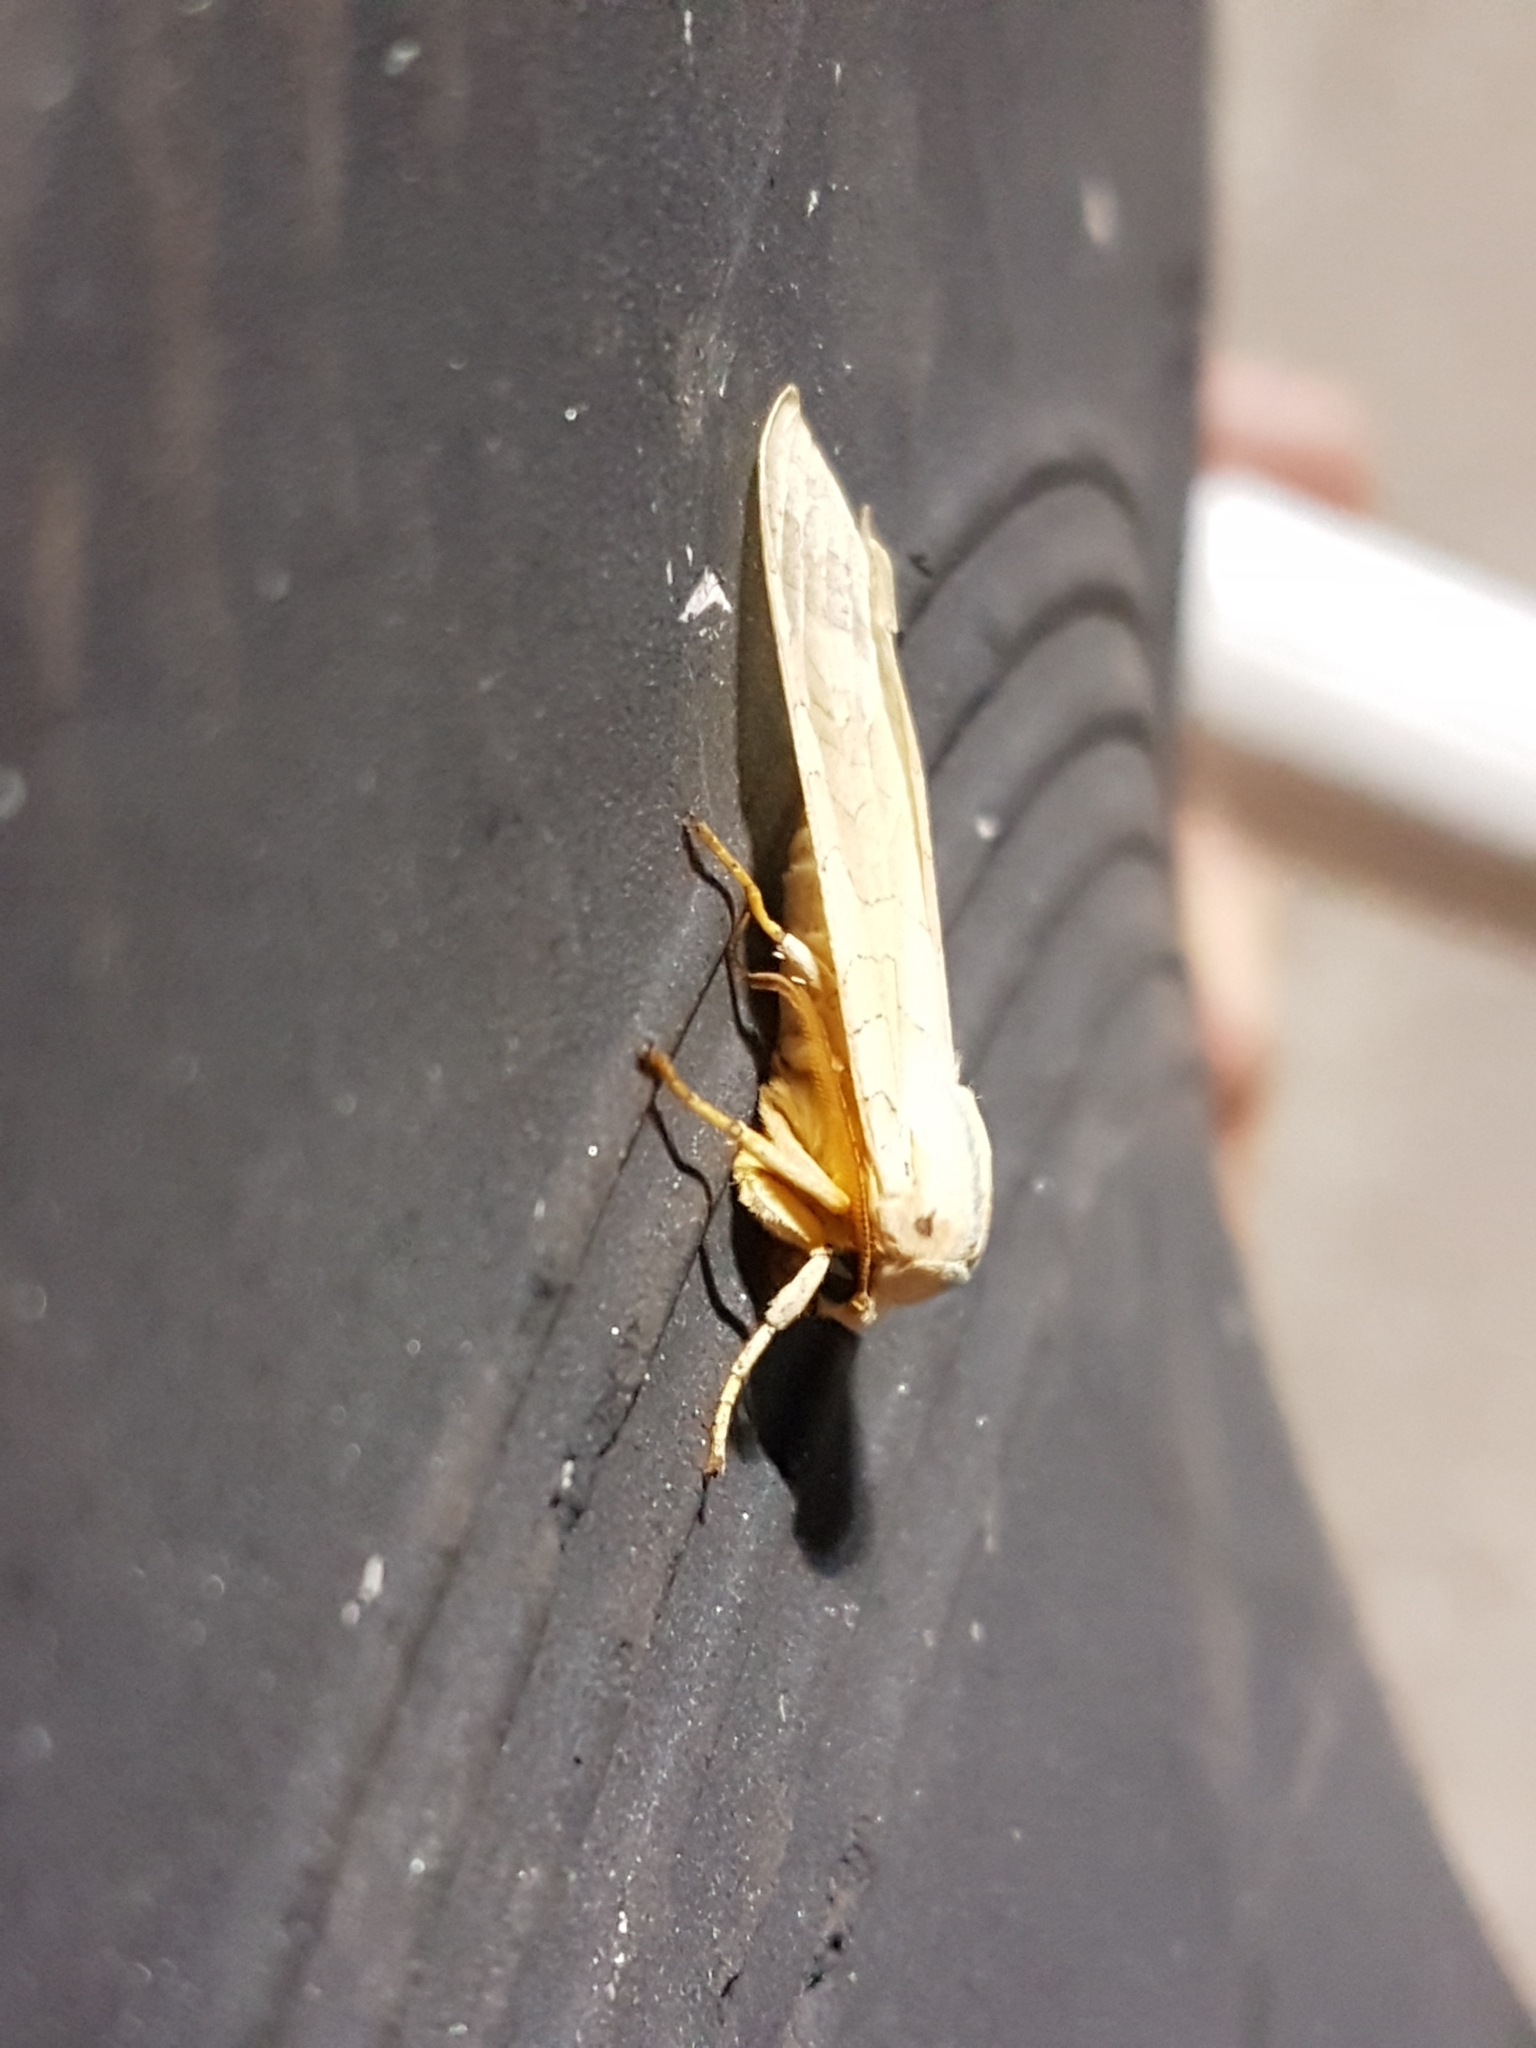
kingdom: Animalia
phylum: Arthropoda
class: Insecta
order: Lepidoptera
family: Erebidae
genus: Halysidota
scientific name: Halysidota tessellaris
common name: Banded tussock moth
